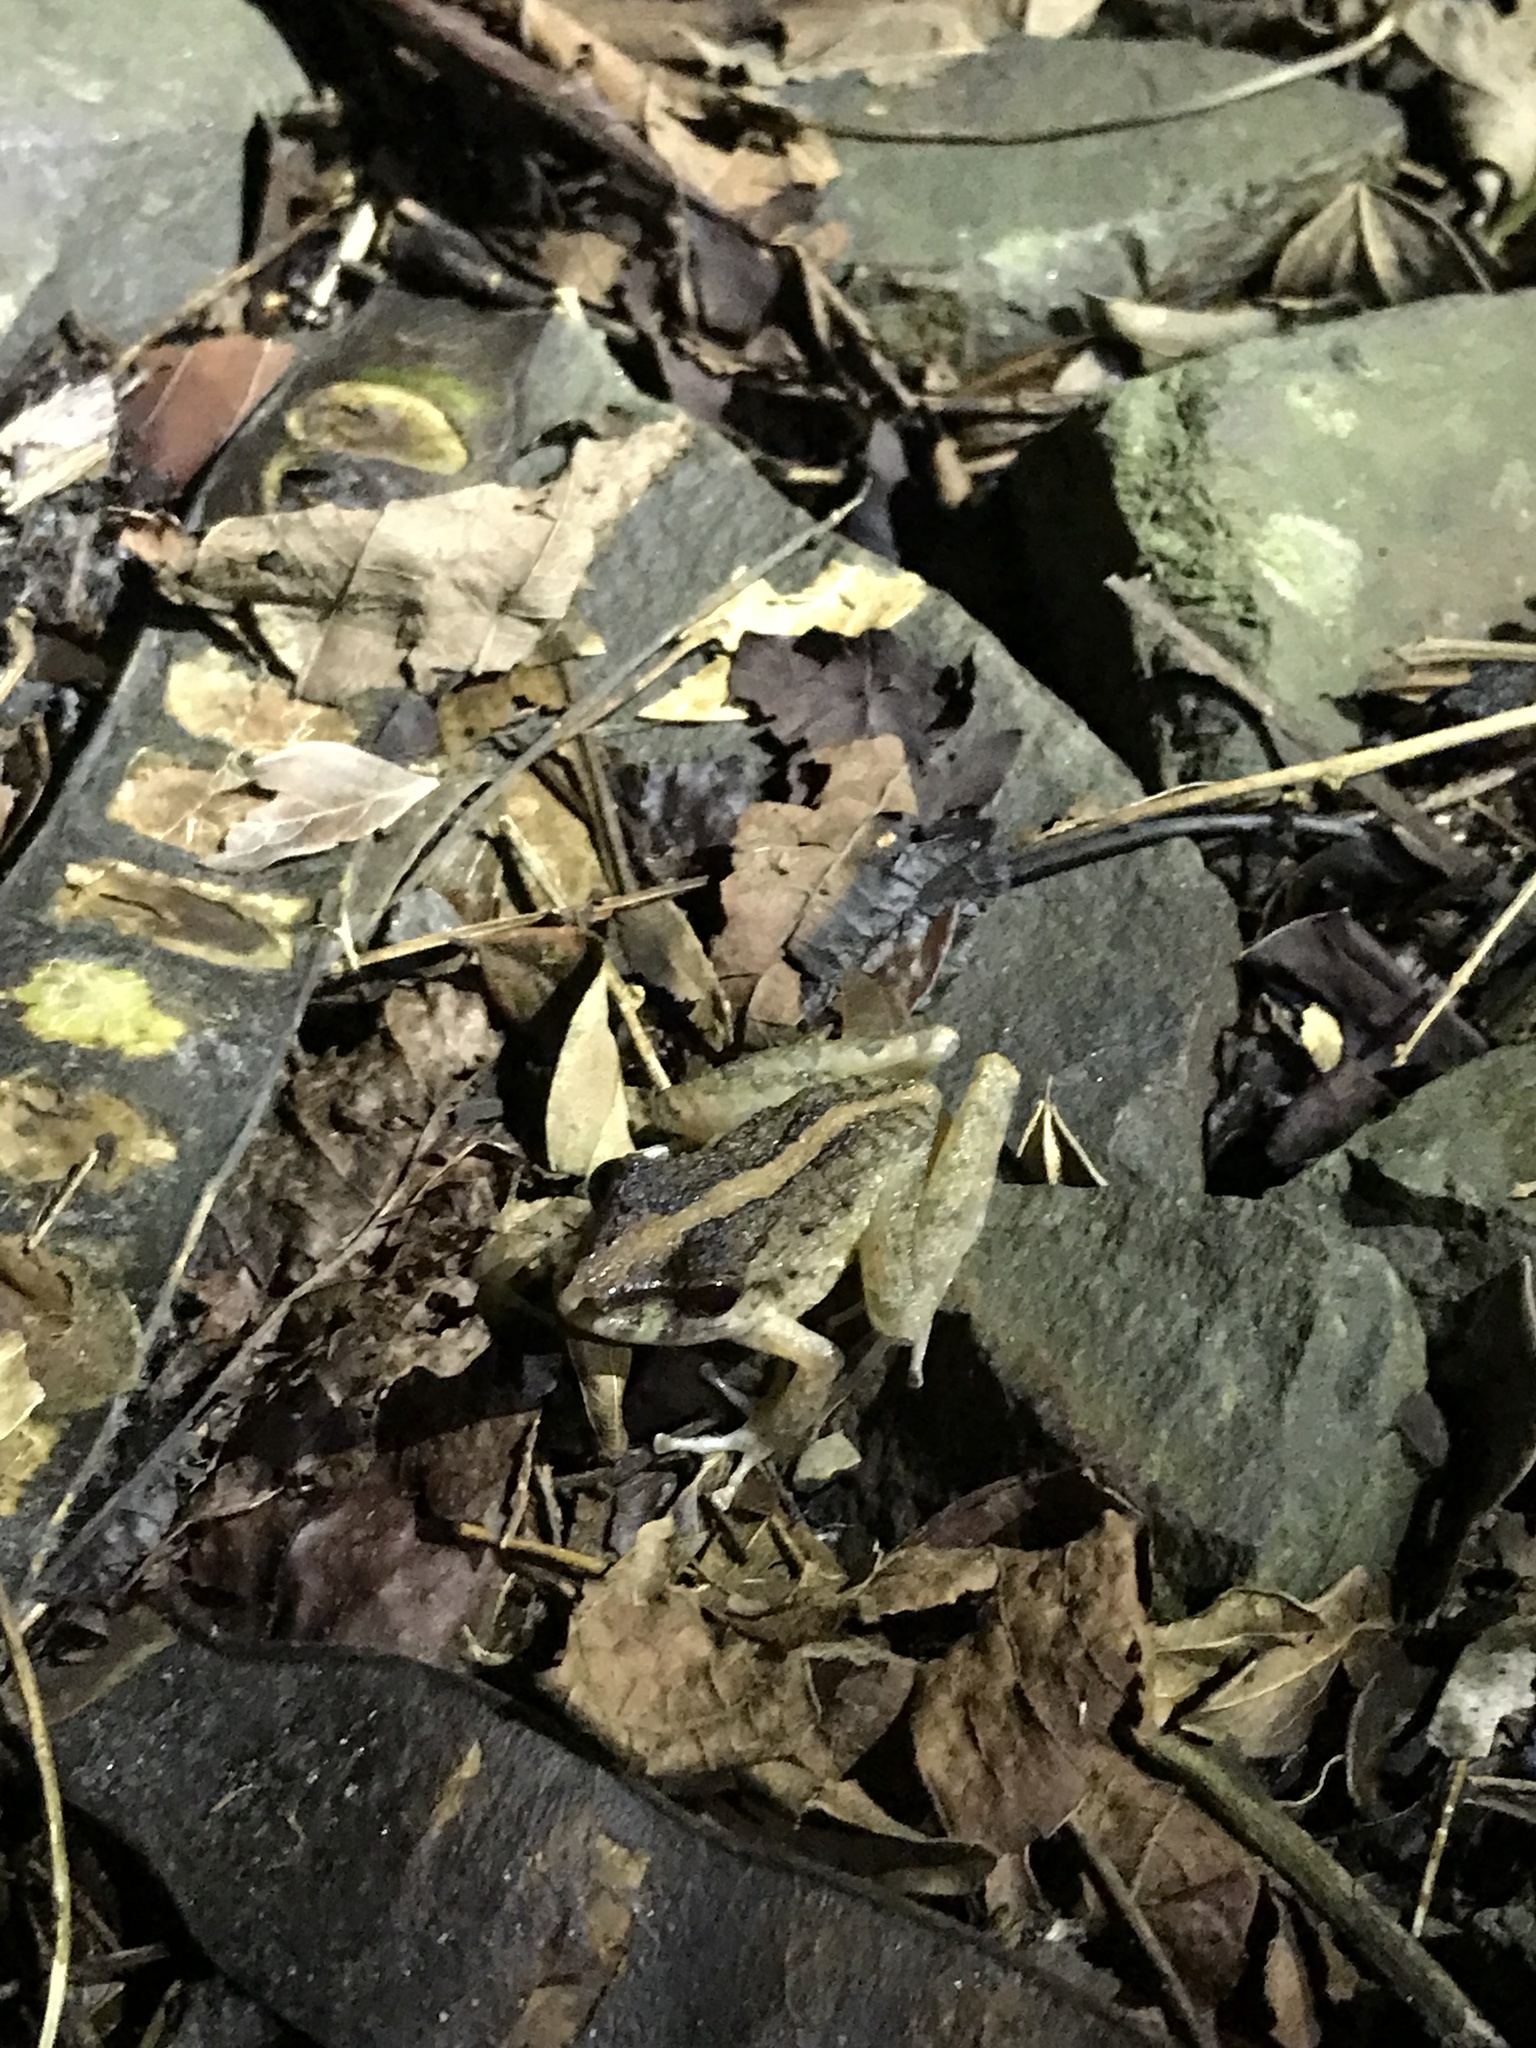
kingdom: Animalia
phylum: Chordata
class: Amphibia
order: Anura
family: Craugastoridae
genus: Craugastor
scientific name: Craugastor fitzingeri
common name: Fitzinger's robber frog
